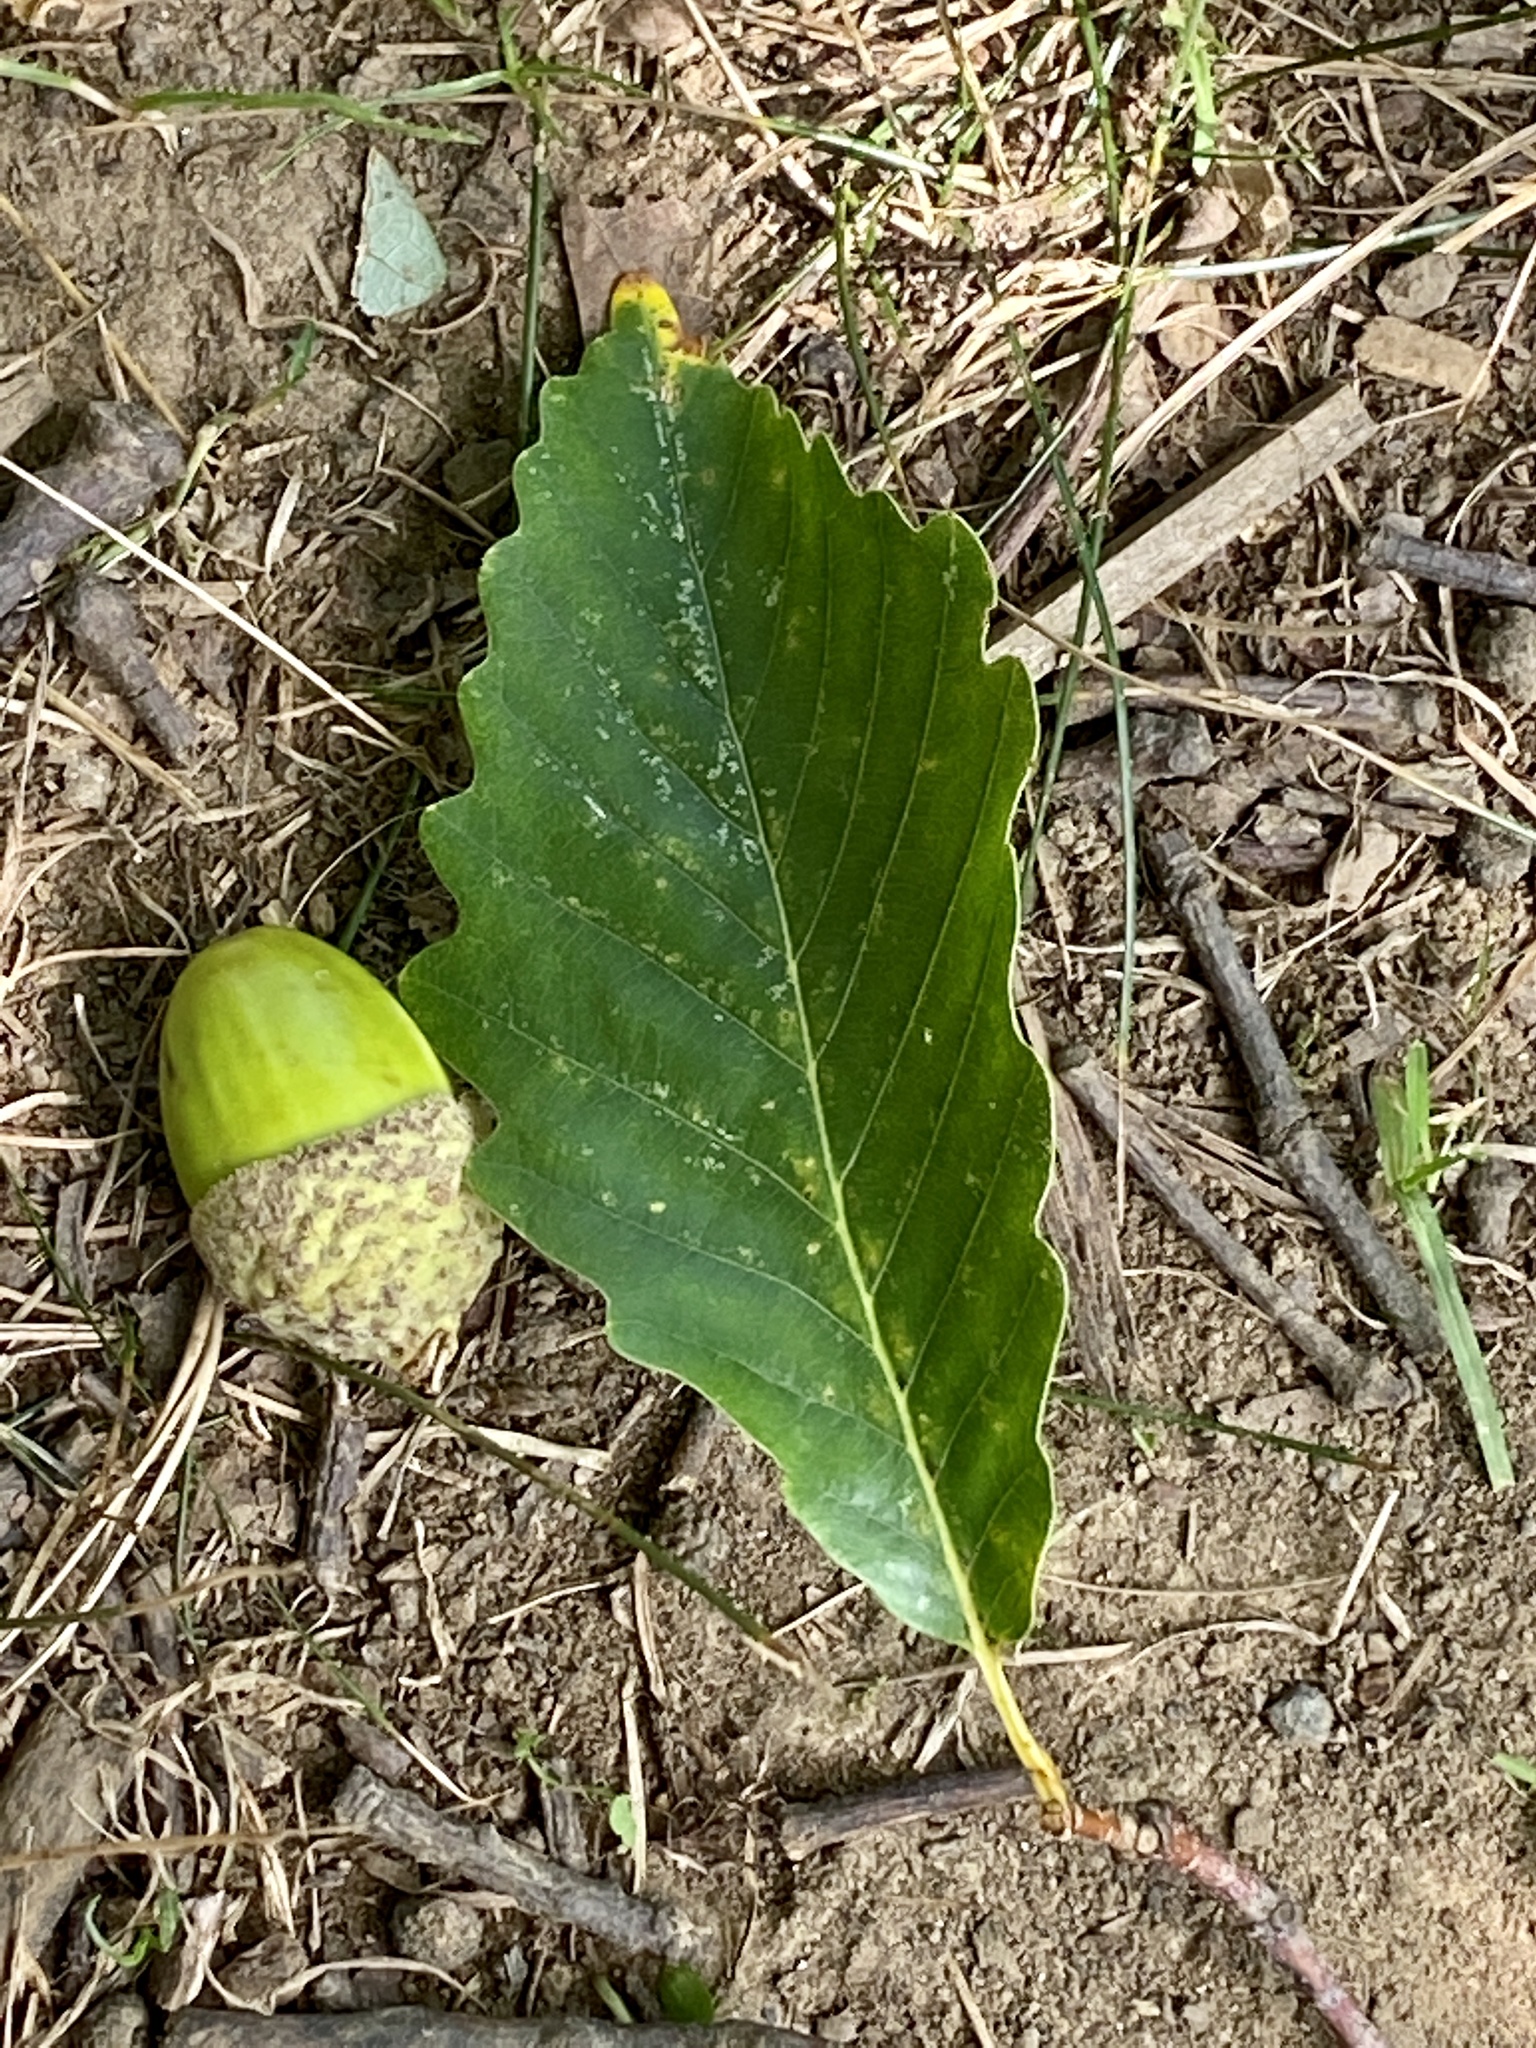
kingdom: Plantae
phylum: Tracheophyta
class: Magnoliopsida
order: Fagales
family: Fagaceae
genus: Quercus
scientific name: Quercus montana
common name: Chestnut oak
